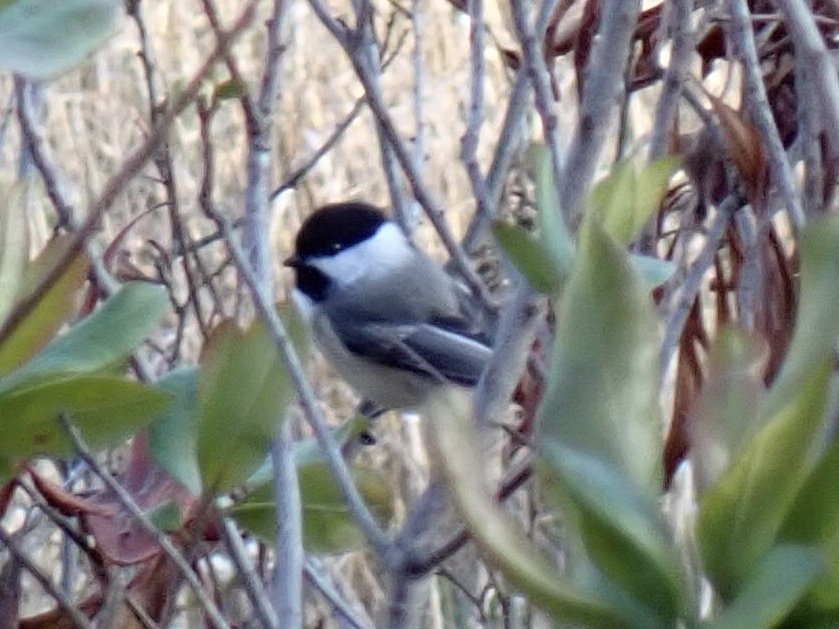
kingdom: Animalia
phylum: Chordata
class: Aves
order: Passeriformes
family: Paridae
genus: Poecile
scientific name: Poecile atricapillus
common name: Black-capped chickadee
